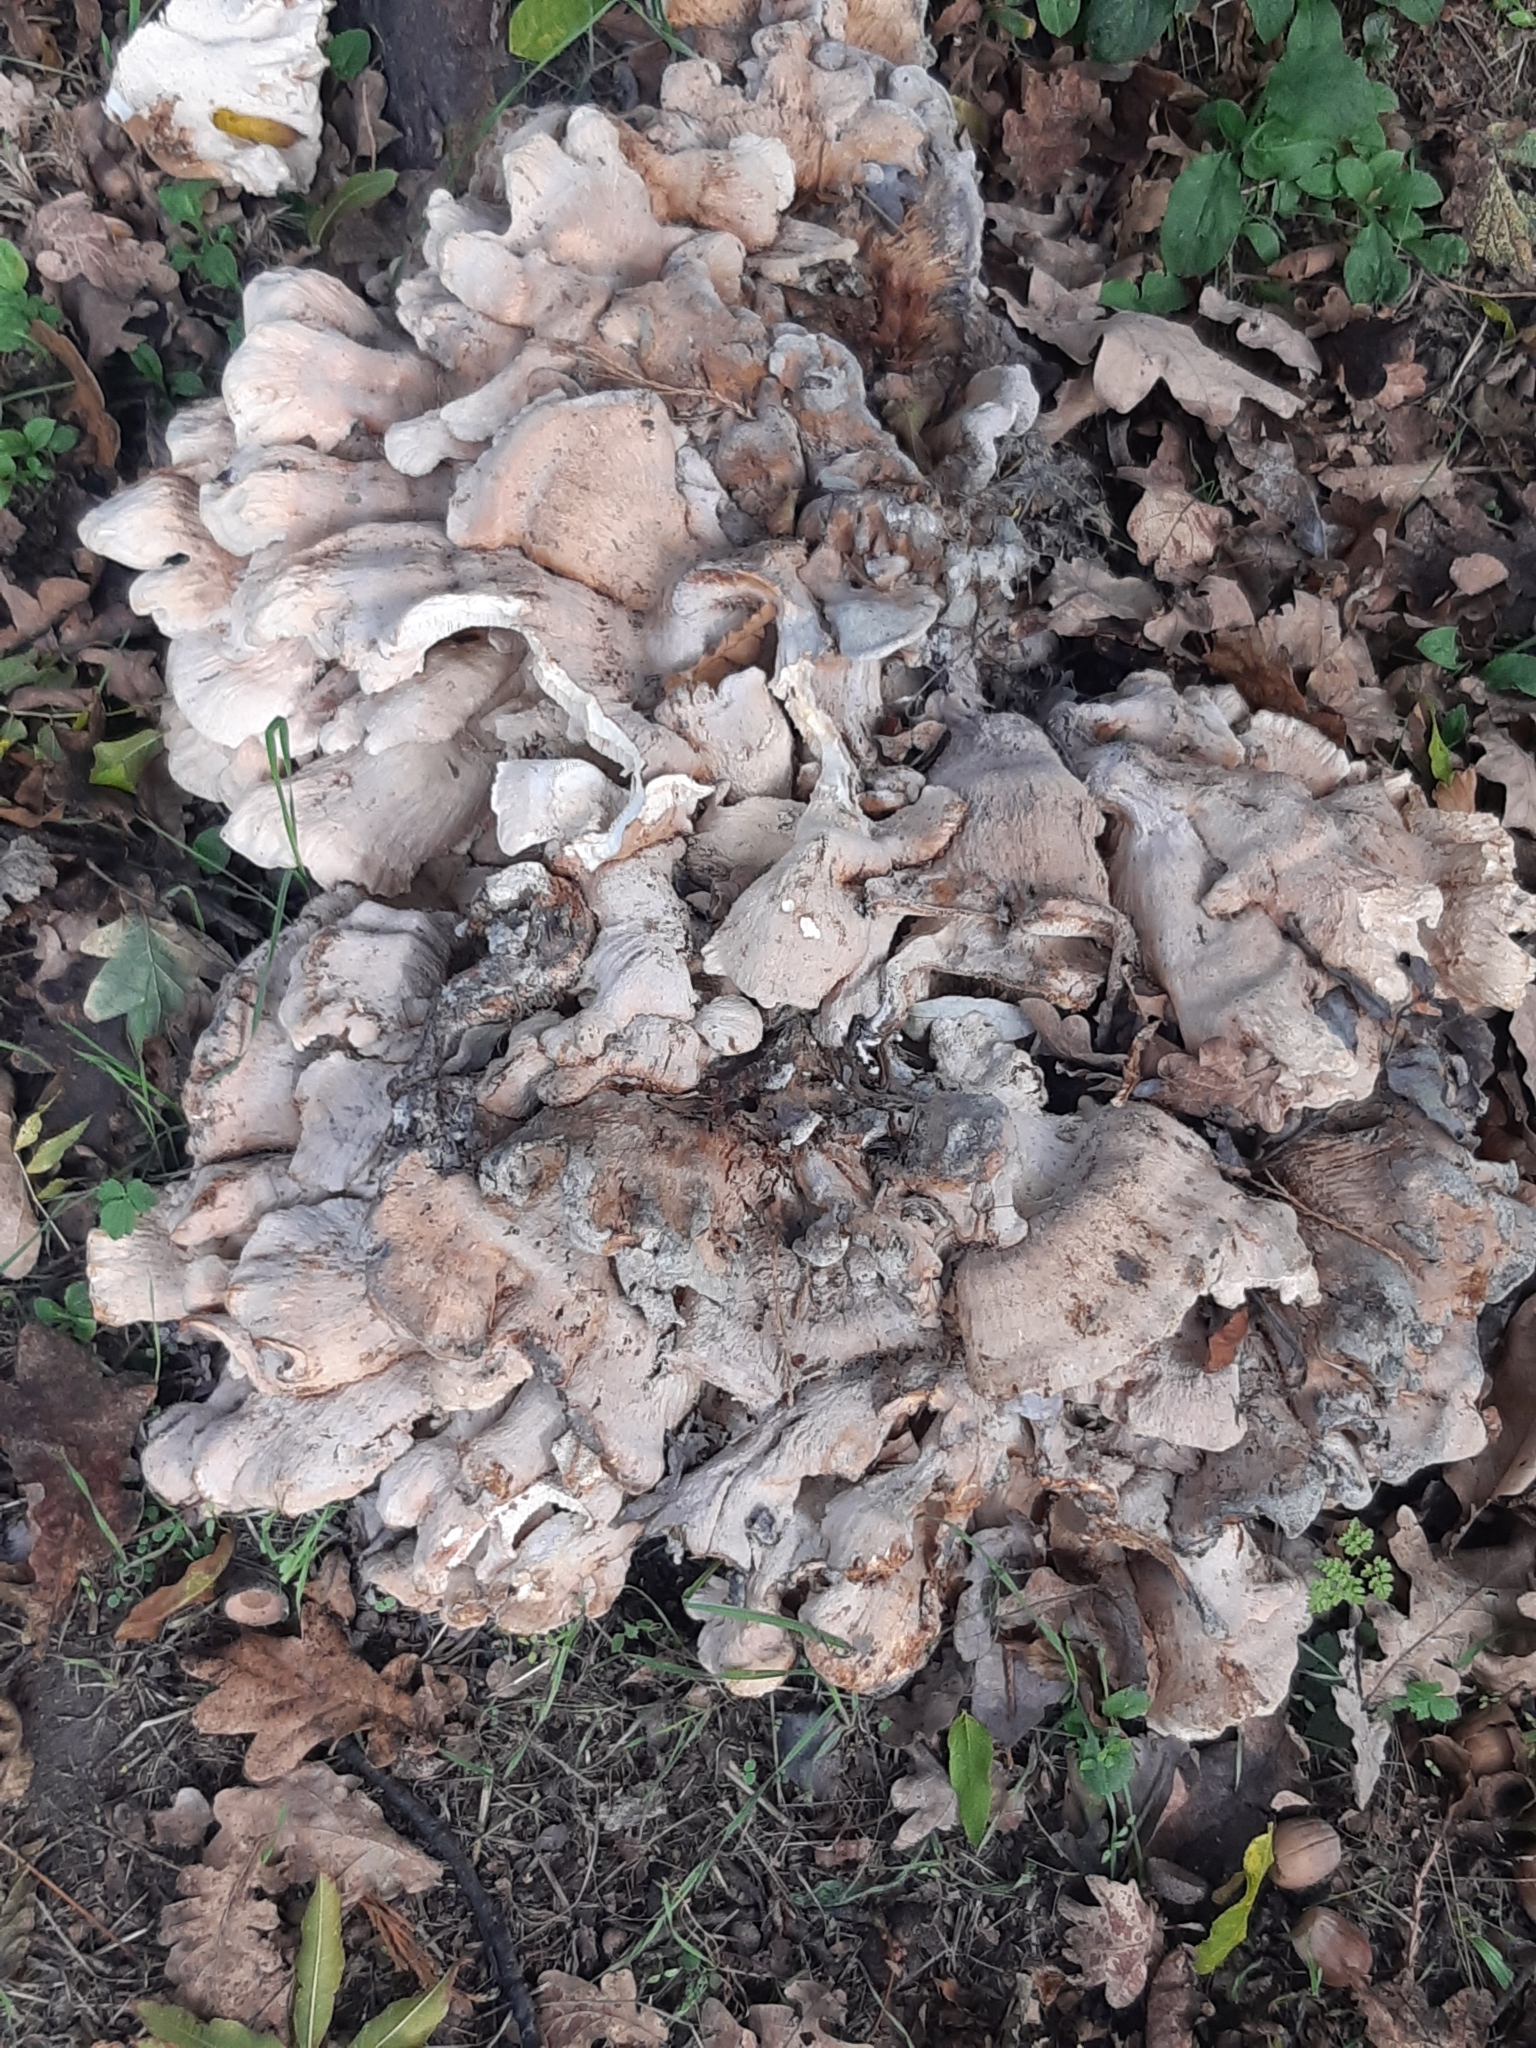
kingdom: Fungi
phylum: Basidiomycota
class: Agaricomycetes
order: Polyporales
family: Meripilaceae
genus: Meripilus
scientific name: Meripilus giganteus
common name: Giant polypore
